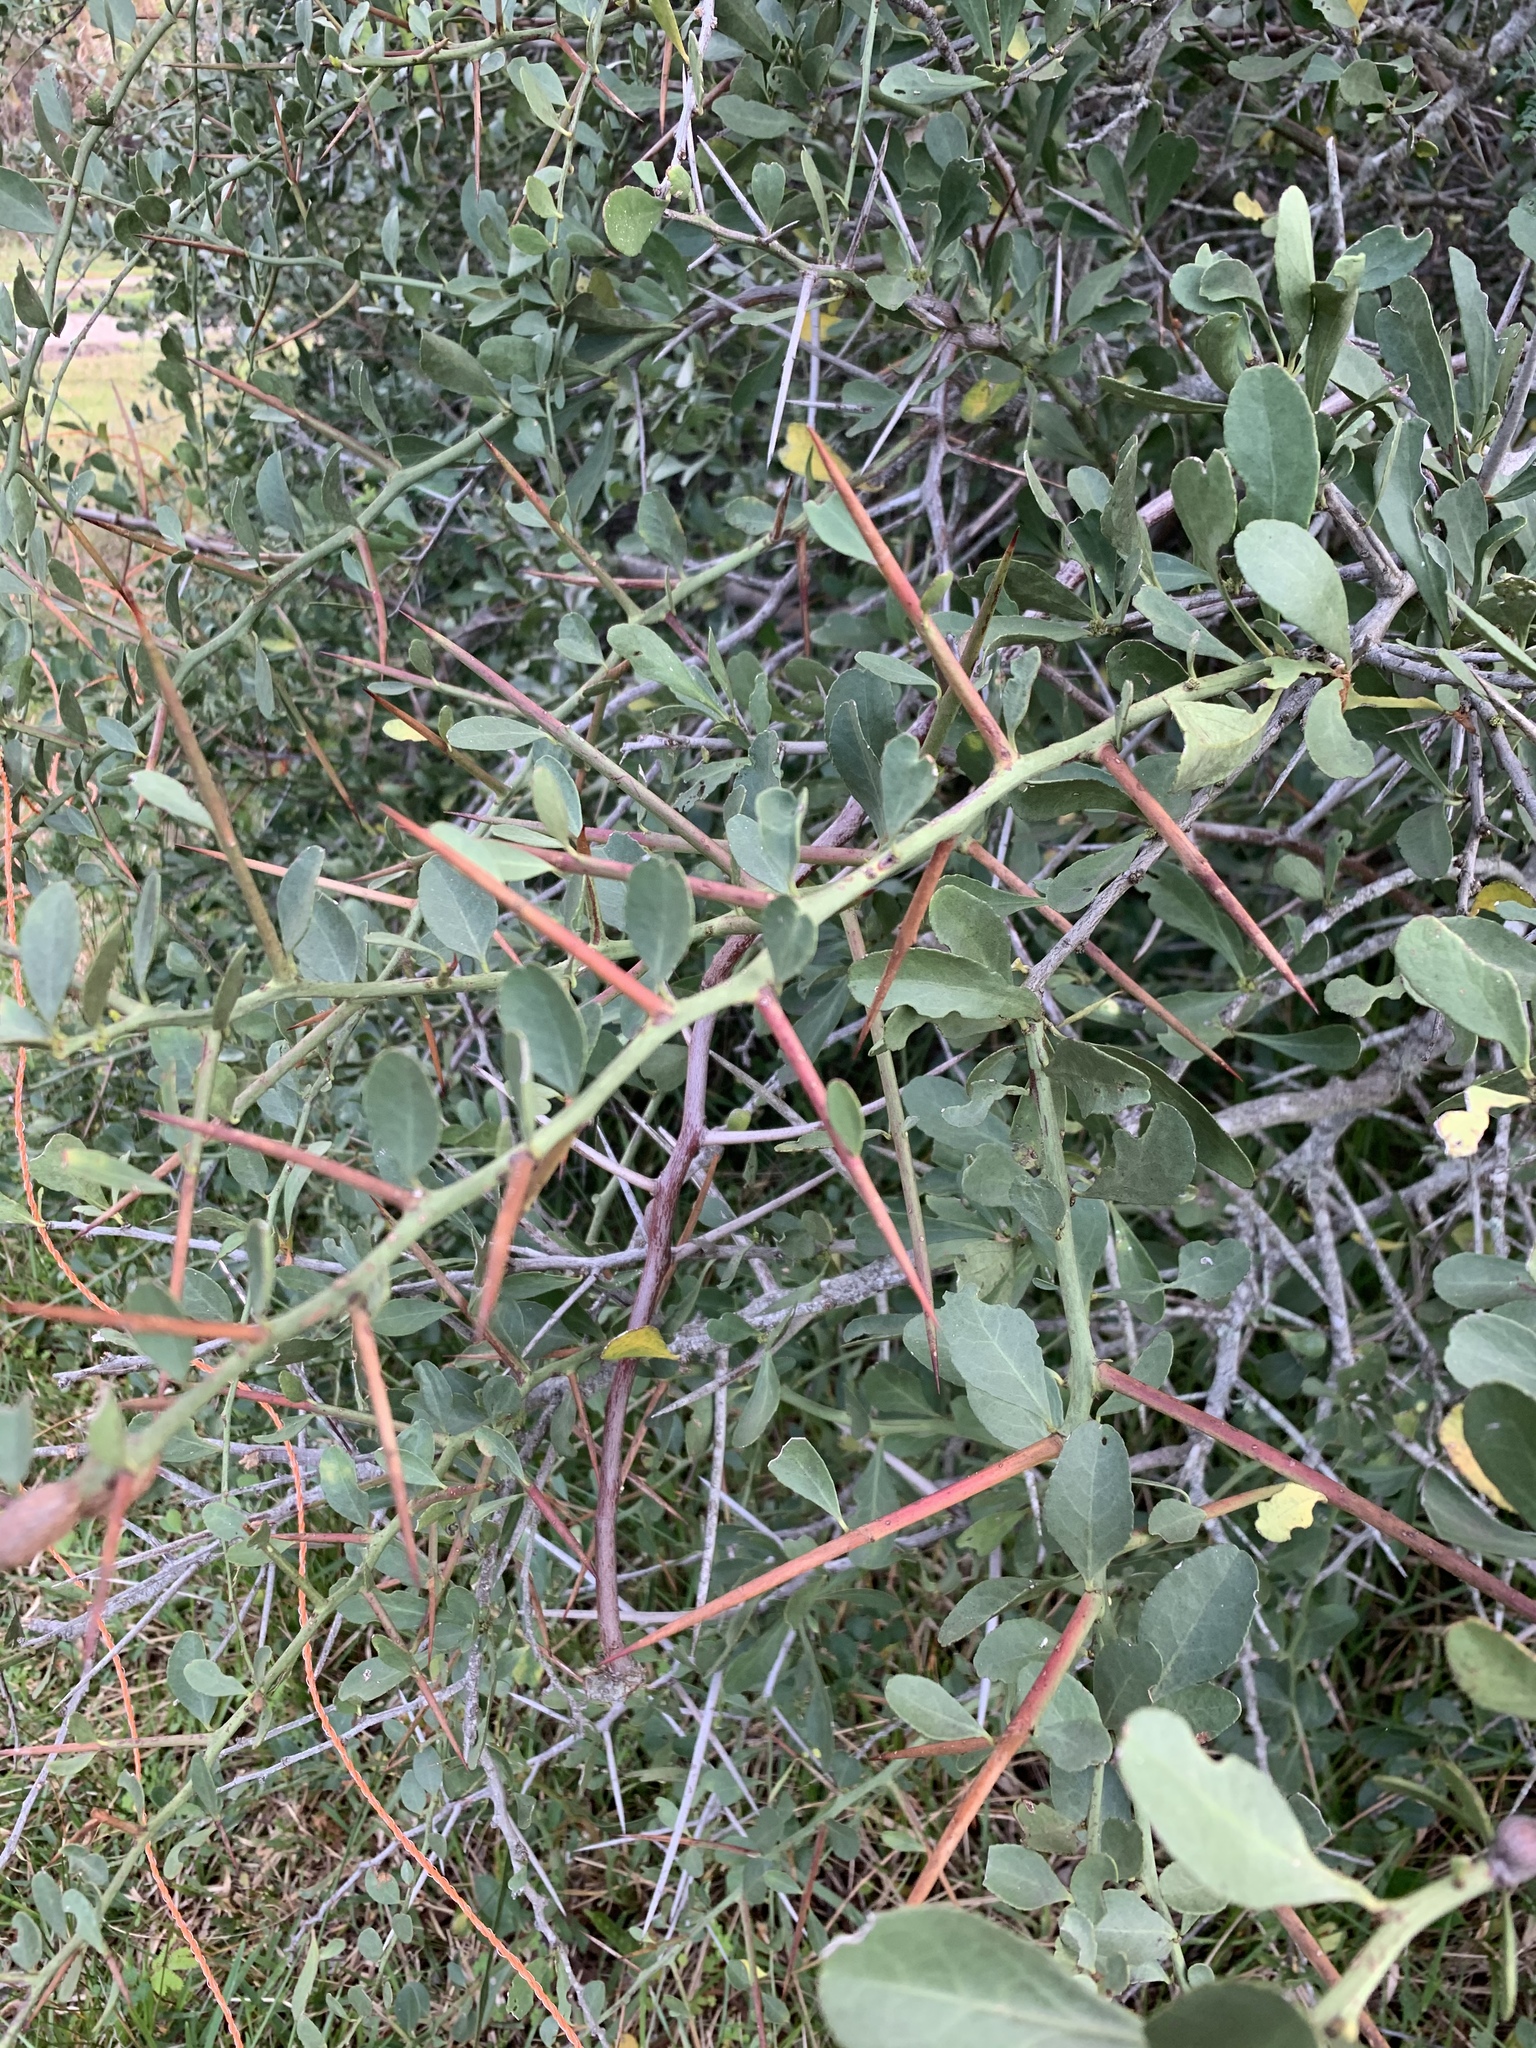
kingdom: Plantae
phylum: Tracheophyta
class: Magnoliopsida
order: Celastrales
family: Celastraceae
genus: Gymnosporia
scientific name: Gymnosporia buxifolia
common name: Common spike-thorn
